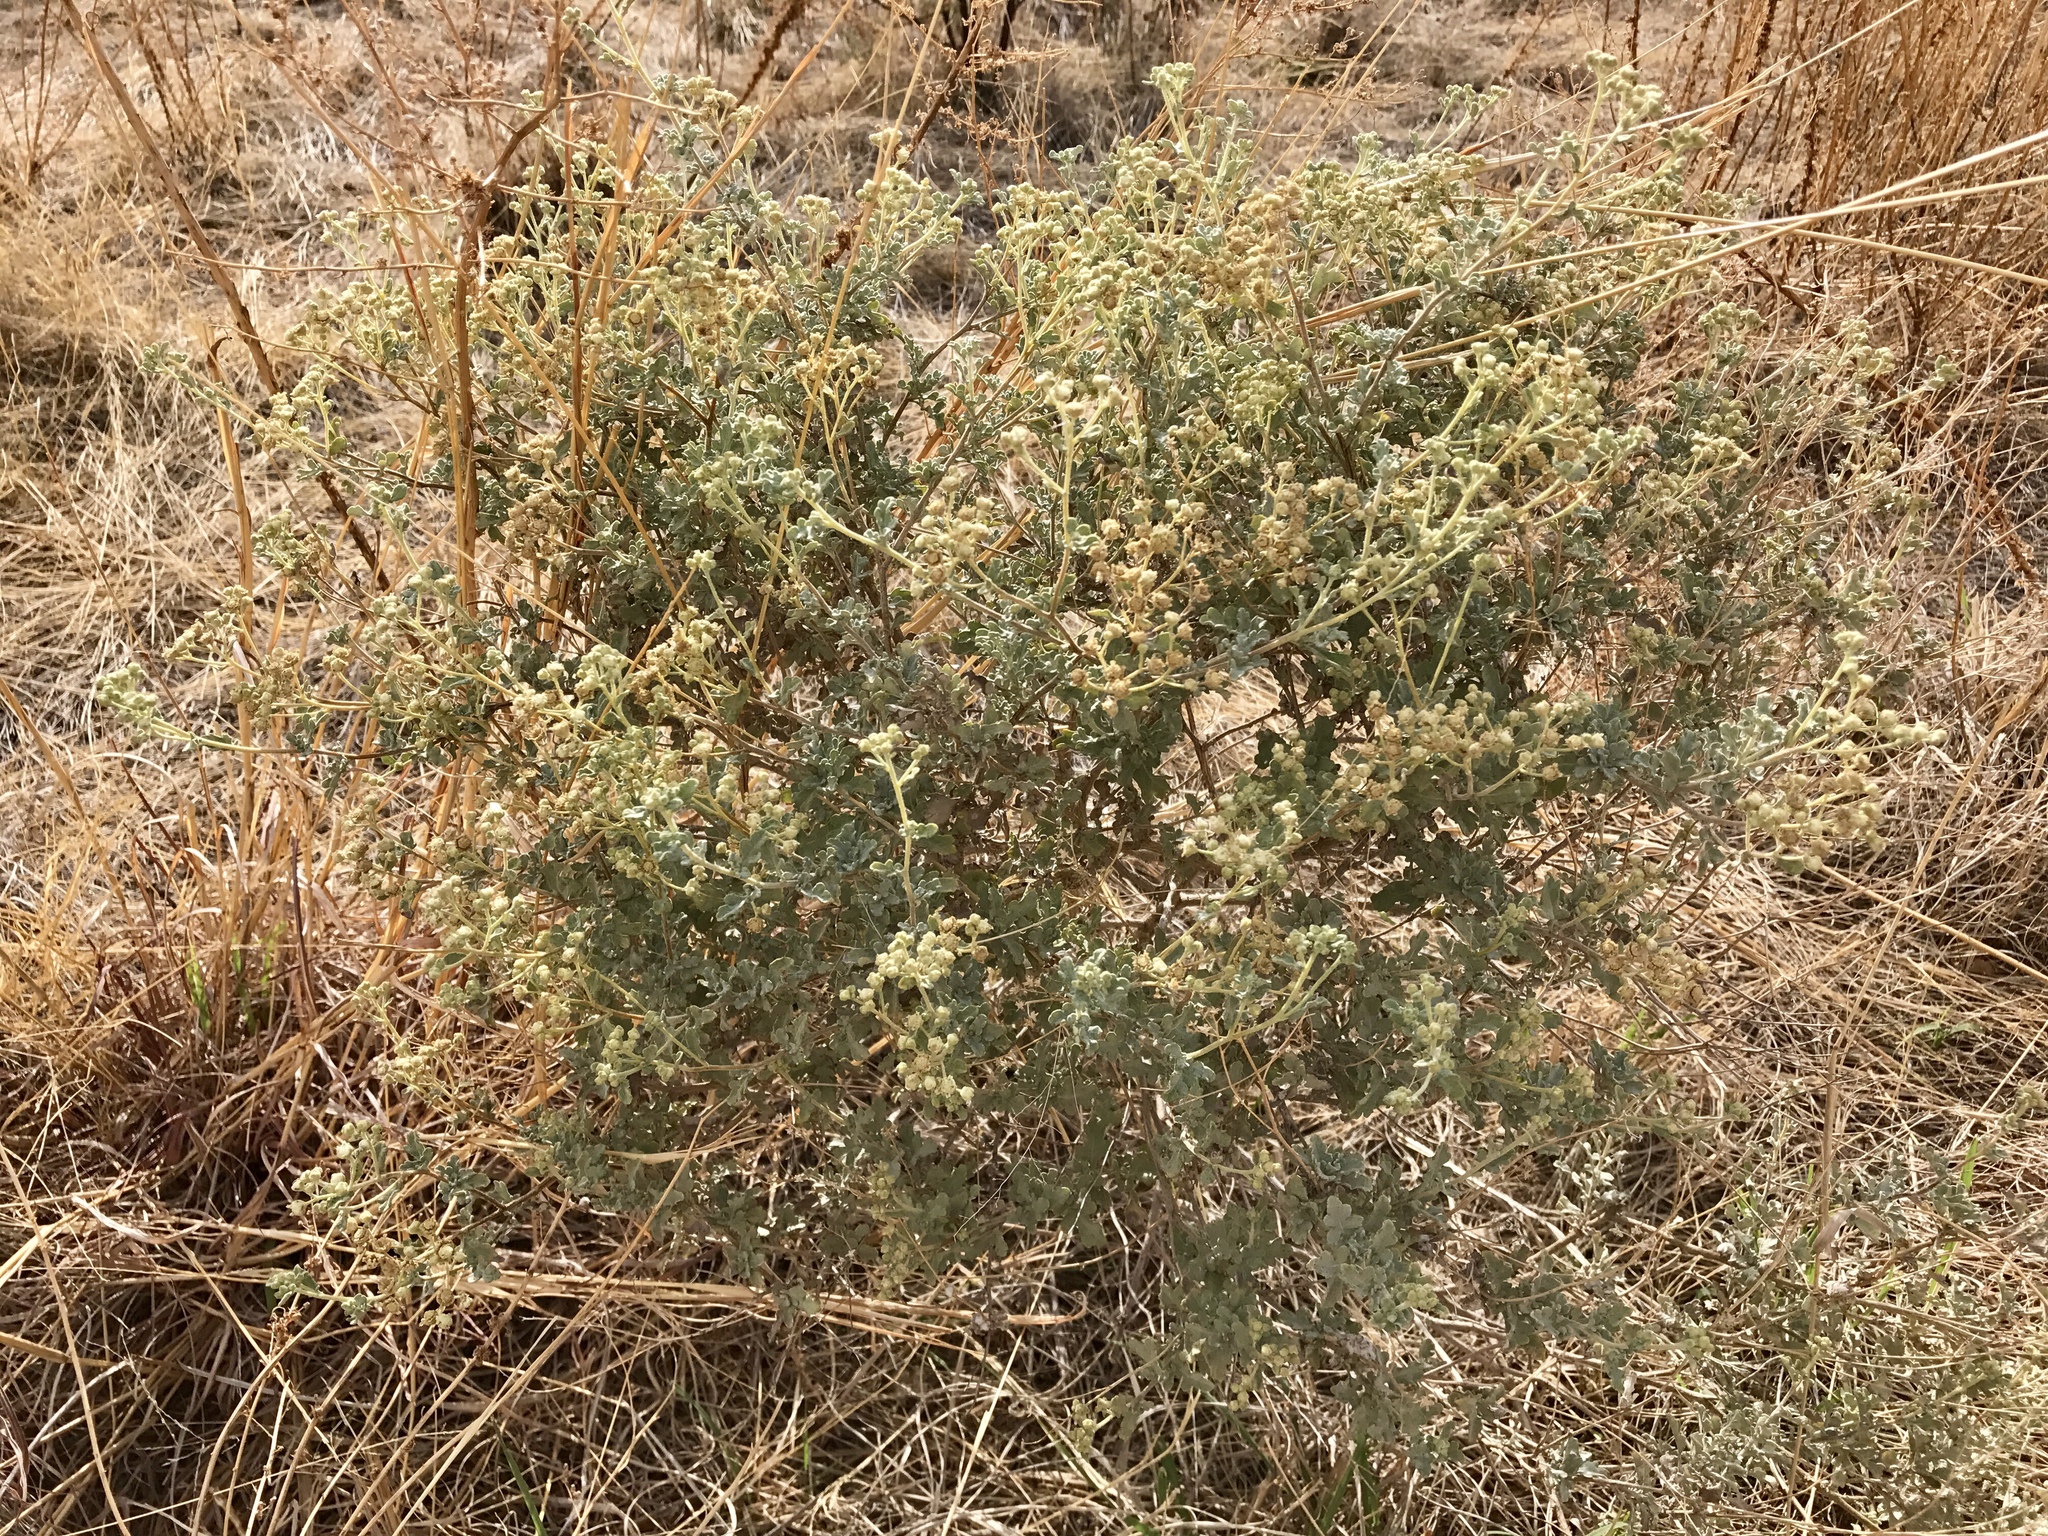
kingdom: Plantae
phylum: Tracheophyta
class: Magnoliopsida
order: Asterales
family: Asteraceae
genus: Parthenium
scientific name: Parthenium incanum
